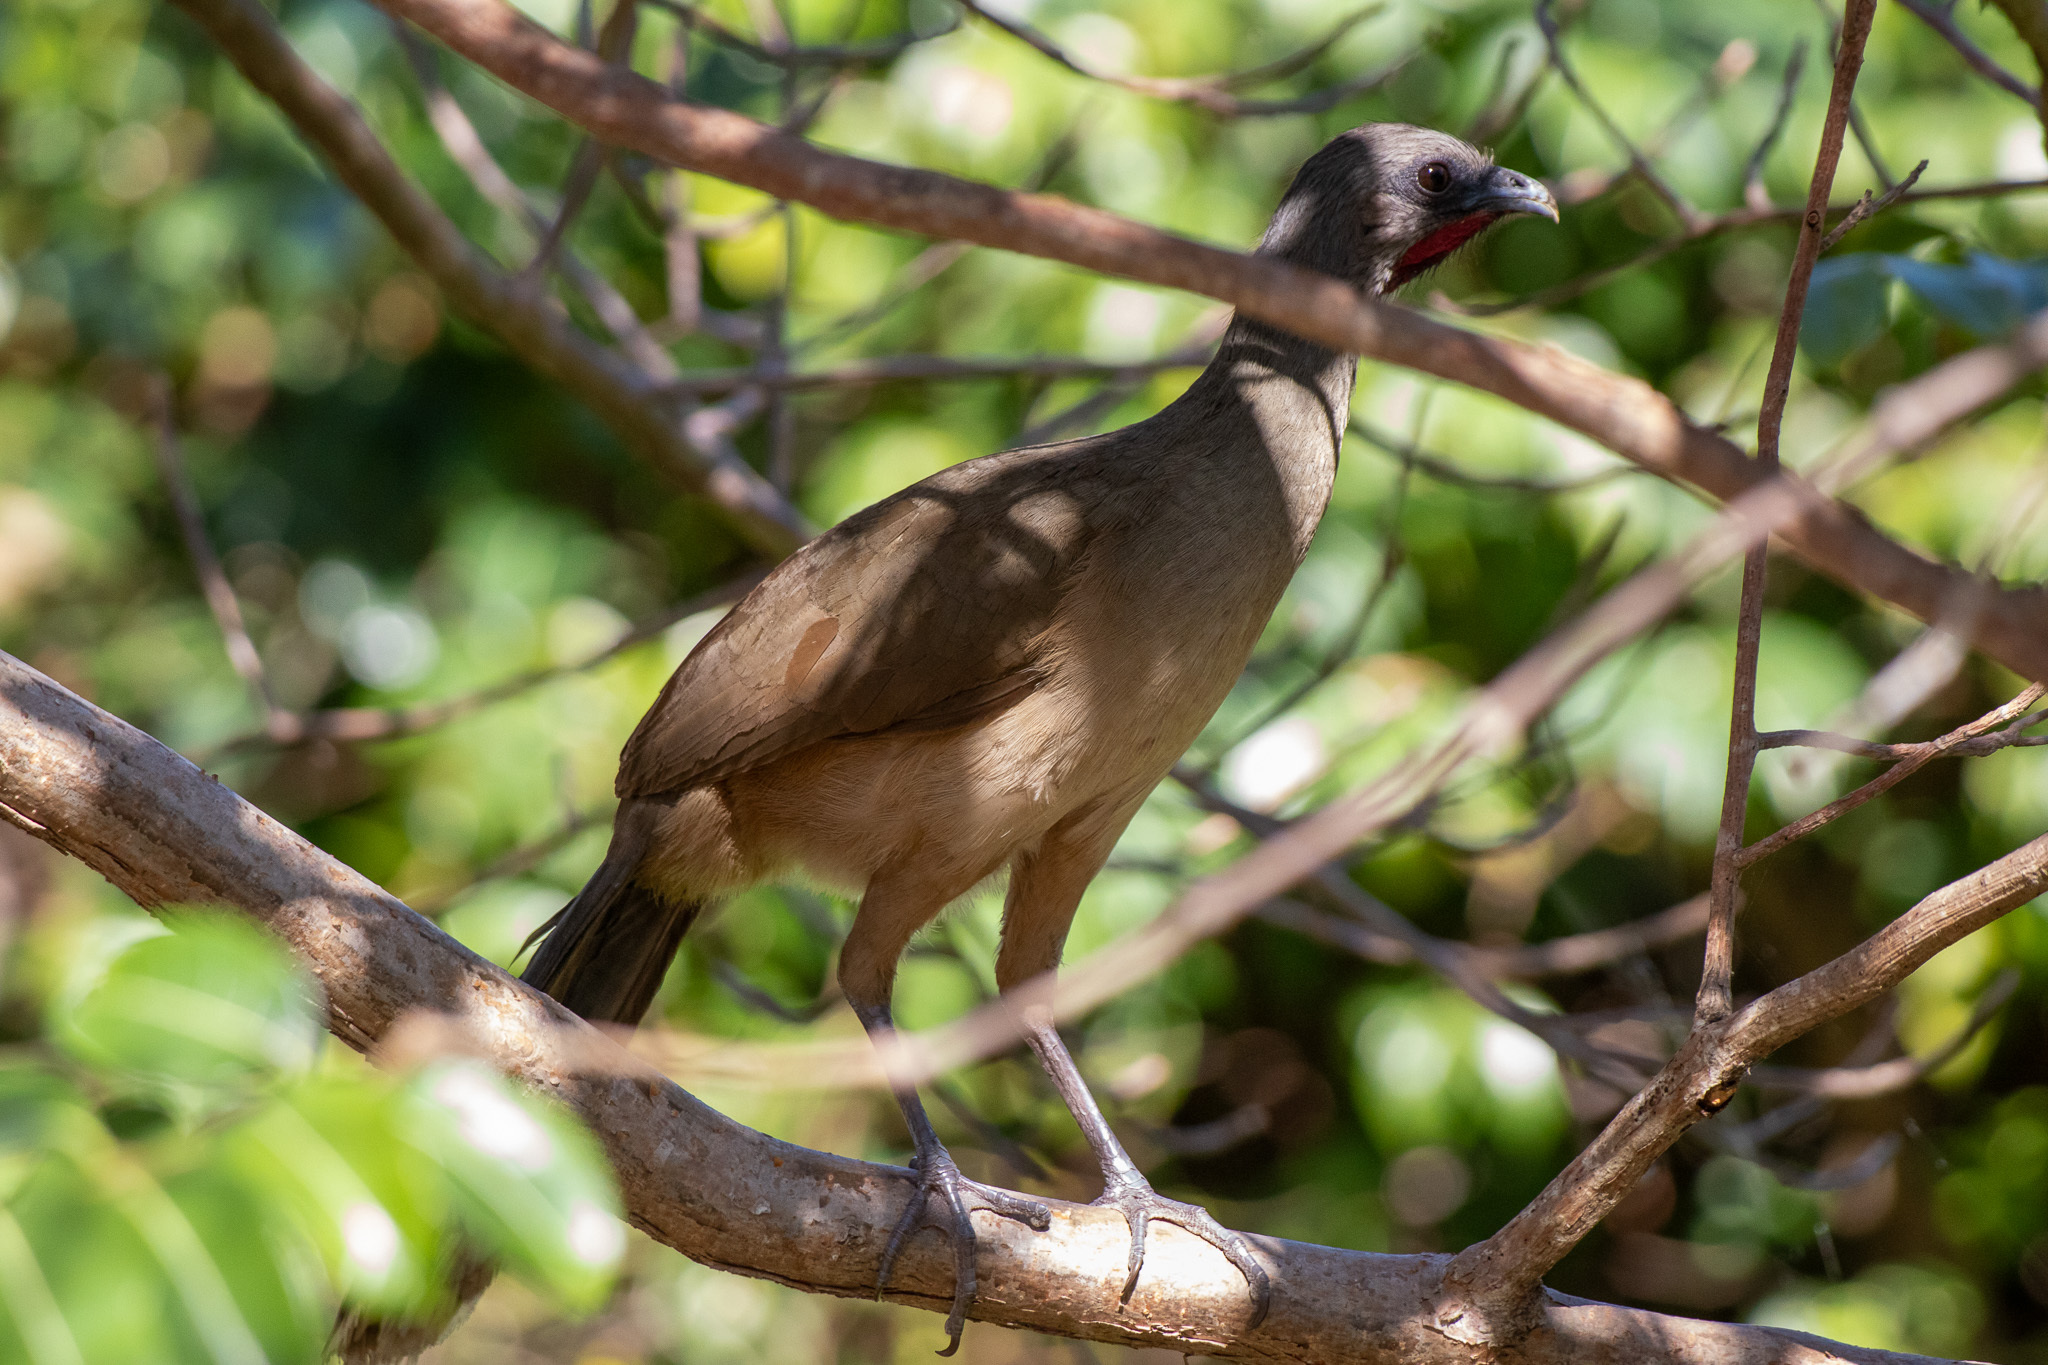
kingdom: Animalia
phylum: Chordata
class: Aves
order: Galliformes
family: Cracidae
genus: Ortalis
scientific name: Ortalis vetula
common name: Plain chachalaca
